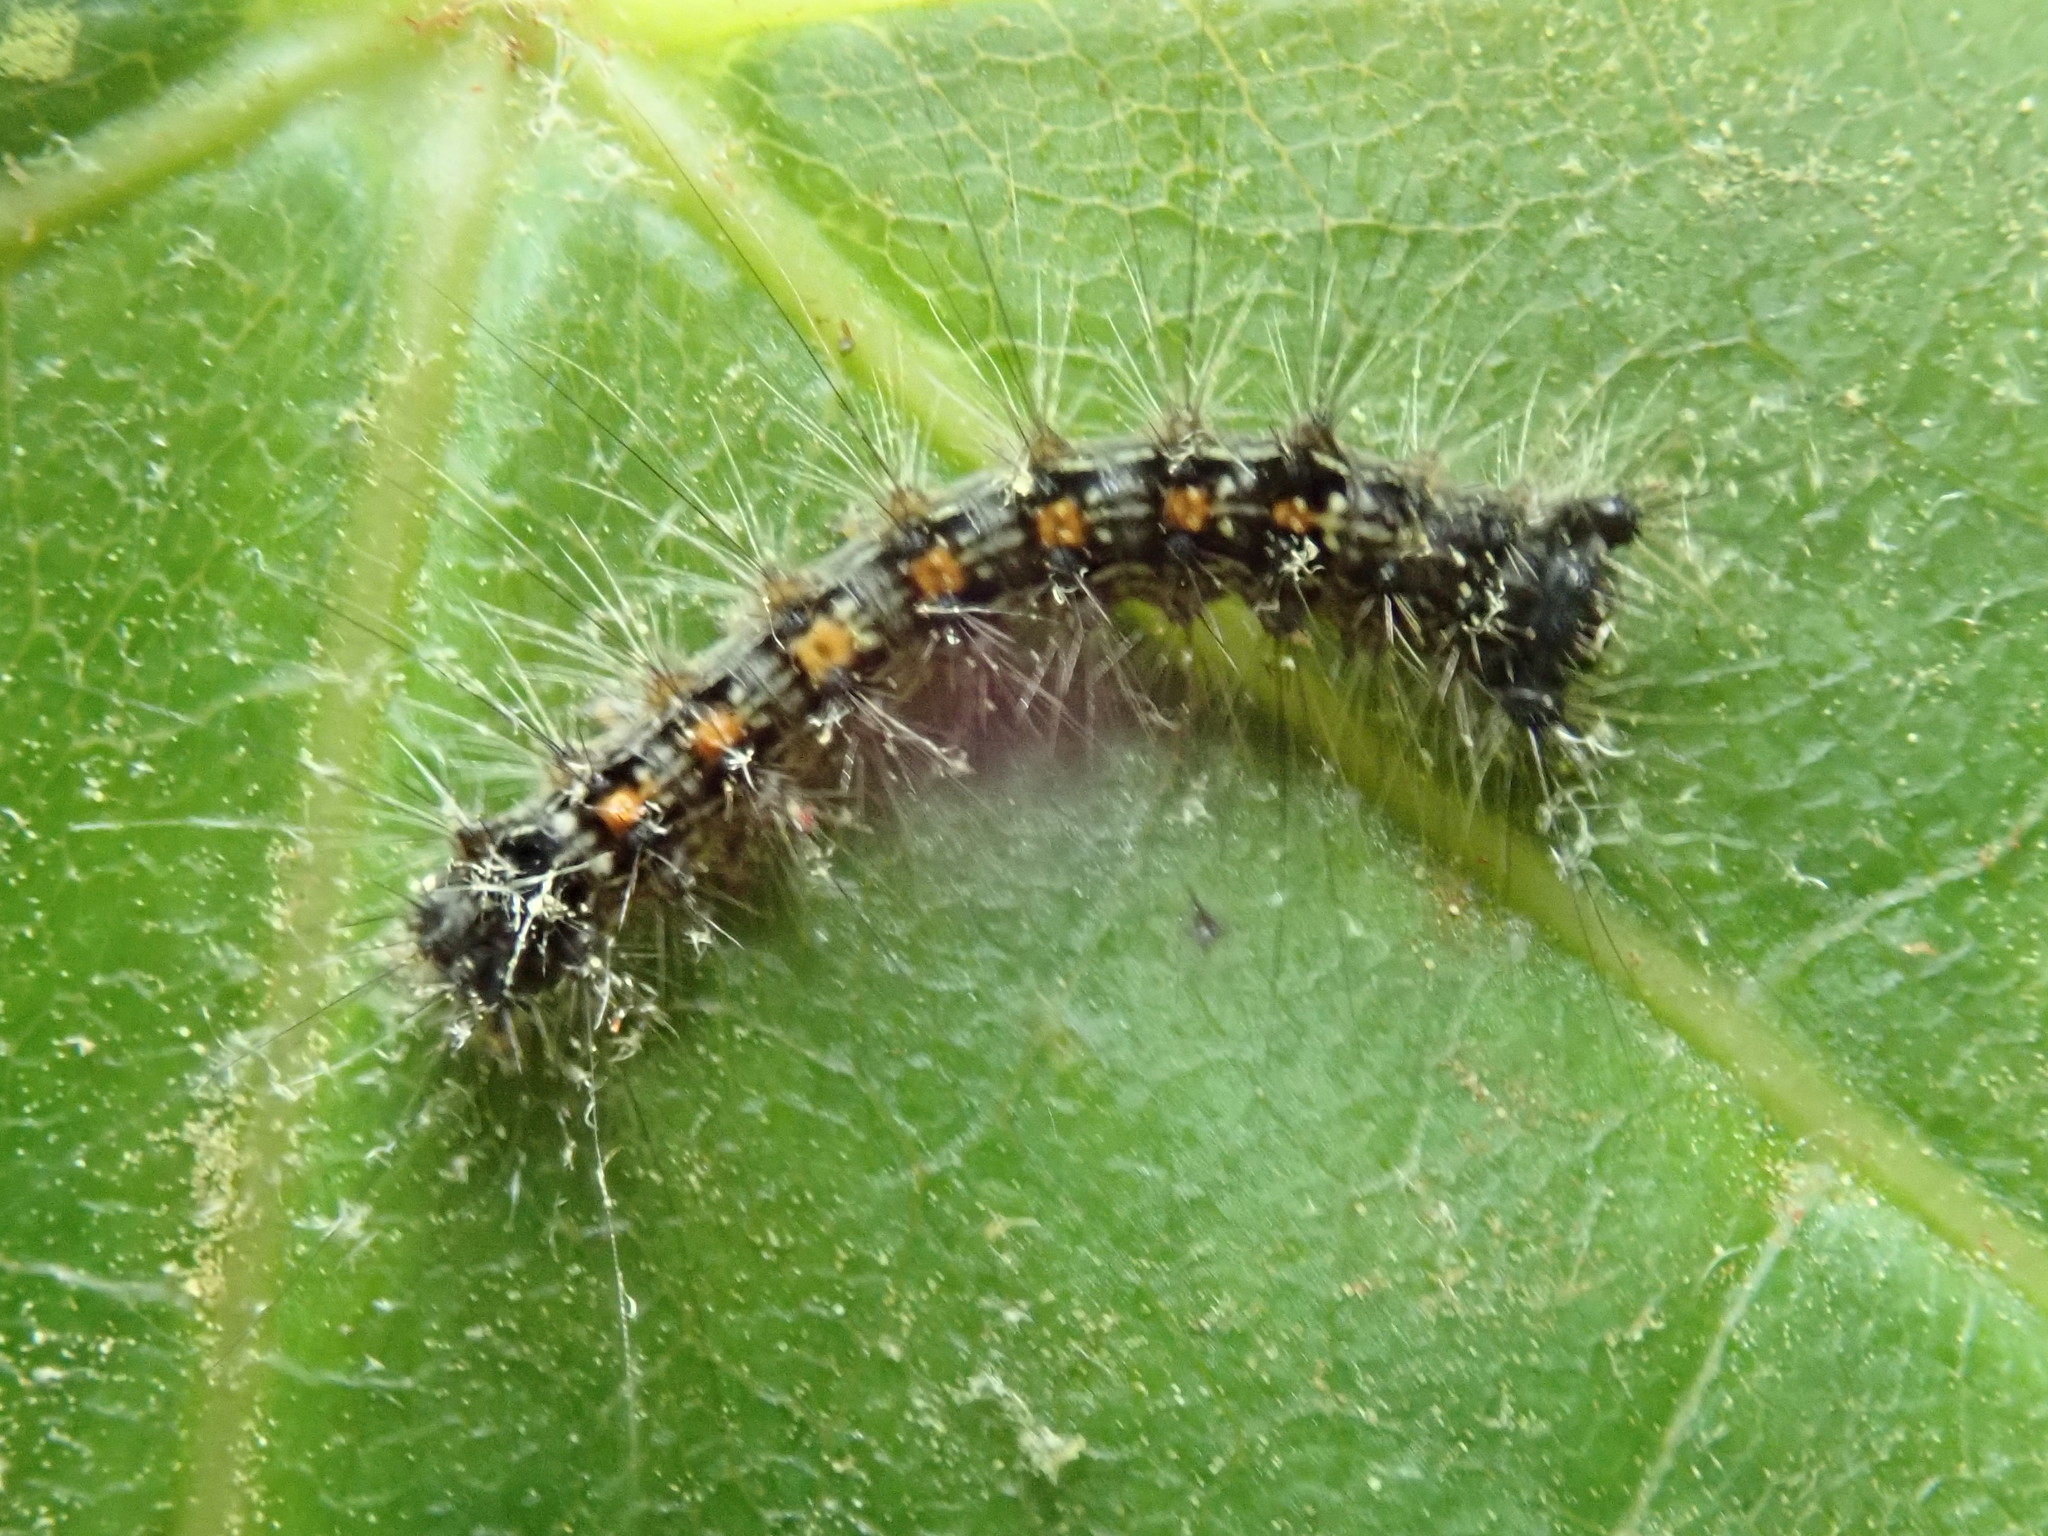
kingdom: Animalia
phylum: Arthropoda
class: Insecta
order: Lepidoptera
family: Erebidae
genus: Lymantria
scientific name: Lymantria dispar
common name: Gypsy moth
